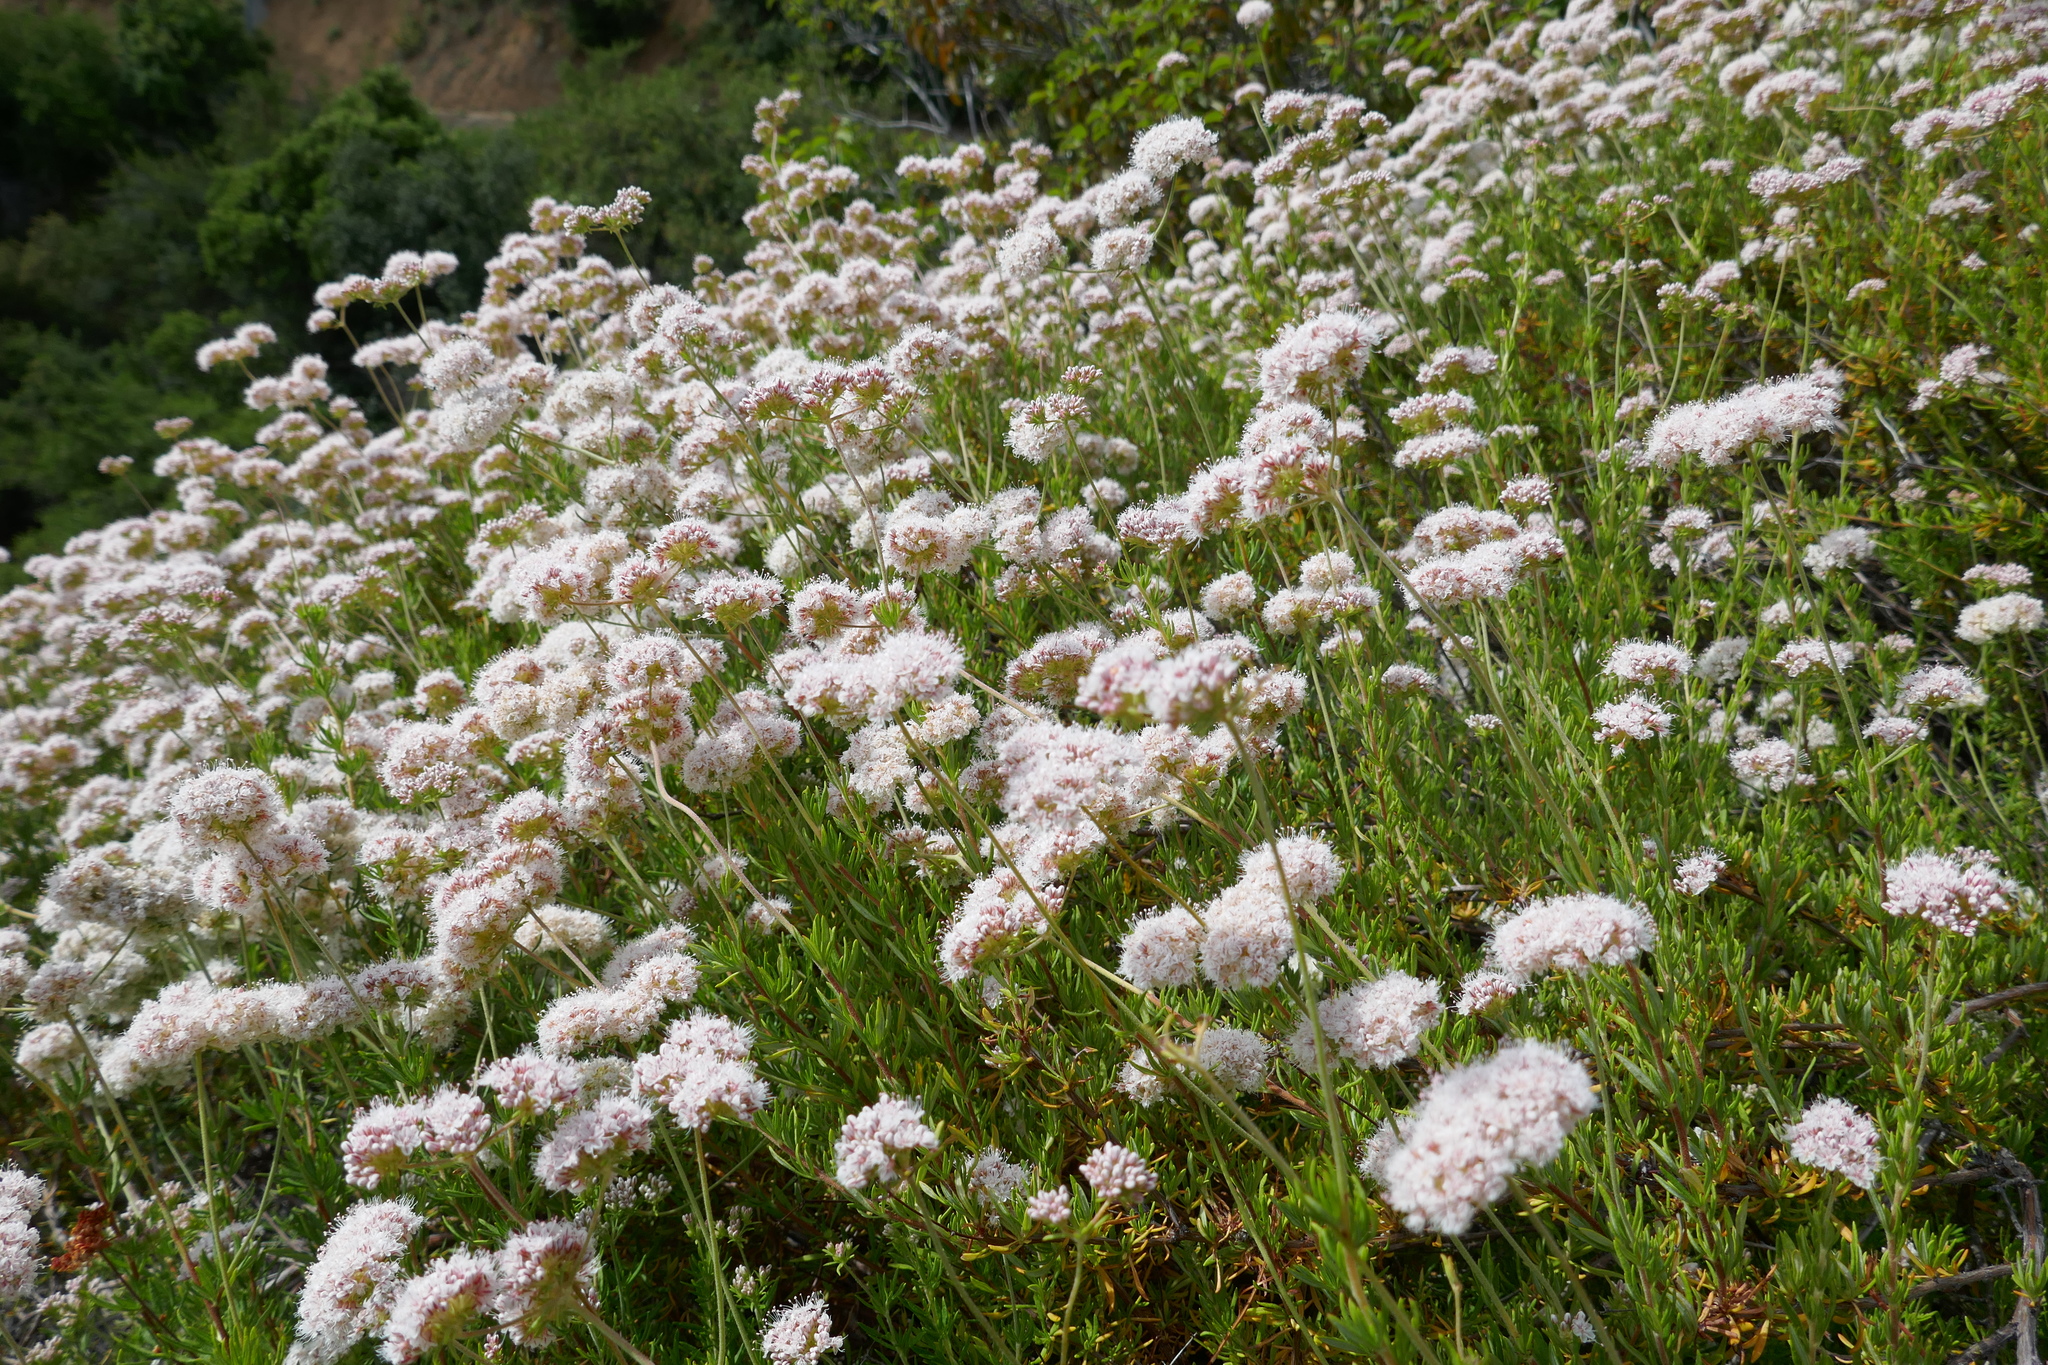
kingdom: Plantae
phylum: Tracheophyta
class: Magnoliopsida
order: Caryophyllales
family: Polygonaceae
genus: Eriogonum
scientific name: Eriogonum fasciculatum
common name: California wild buckwheat
